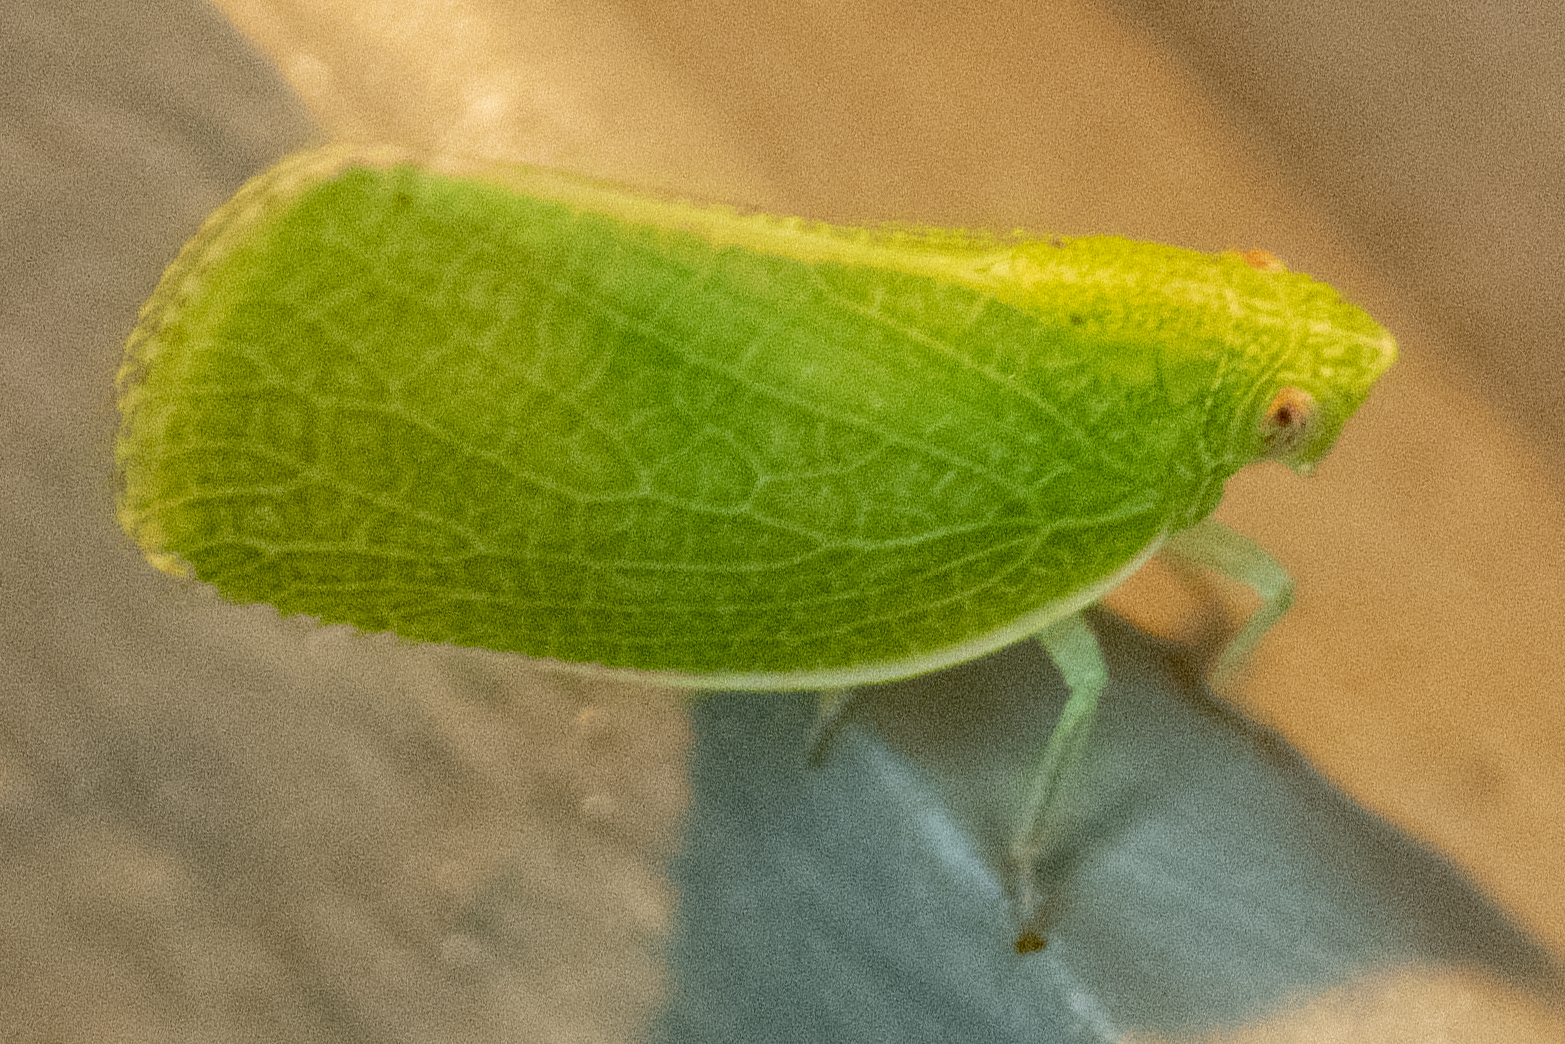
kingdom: Animalia
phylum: Arthropoda
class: Insecta
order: Hemiptera
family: Acanaloniidae
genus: Acanalonia
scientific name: Acanalonia conica
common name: Green cone-headed planthopper
